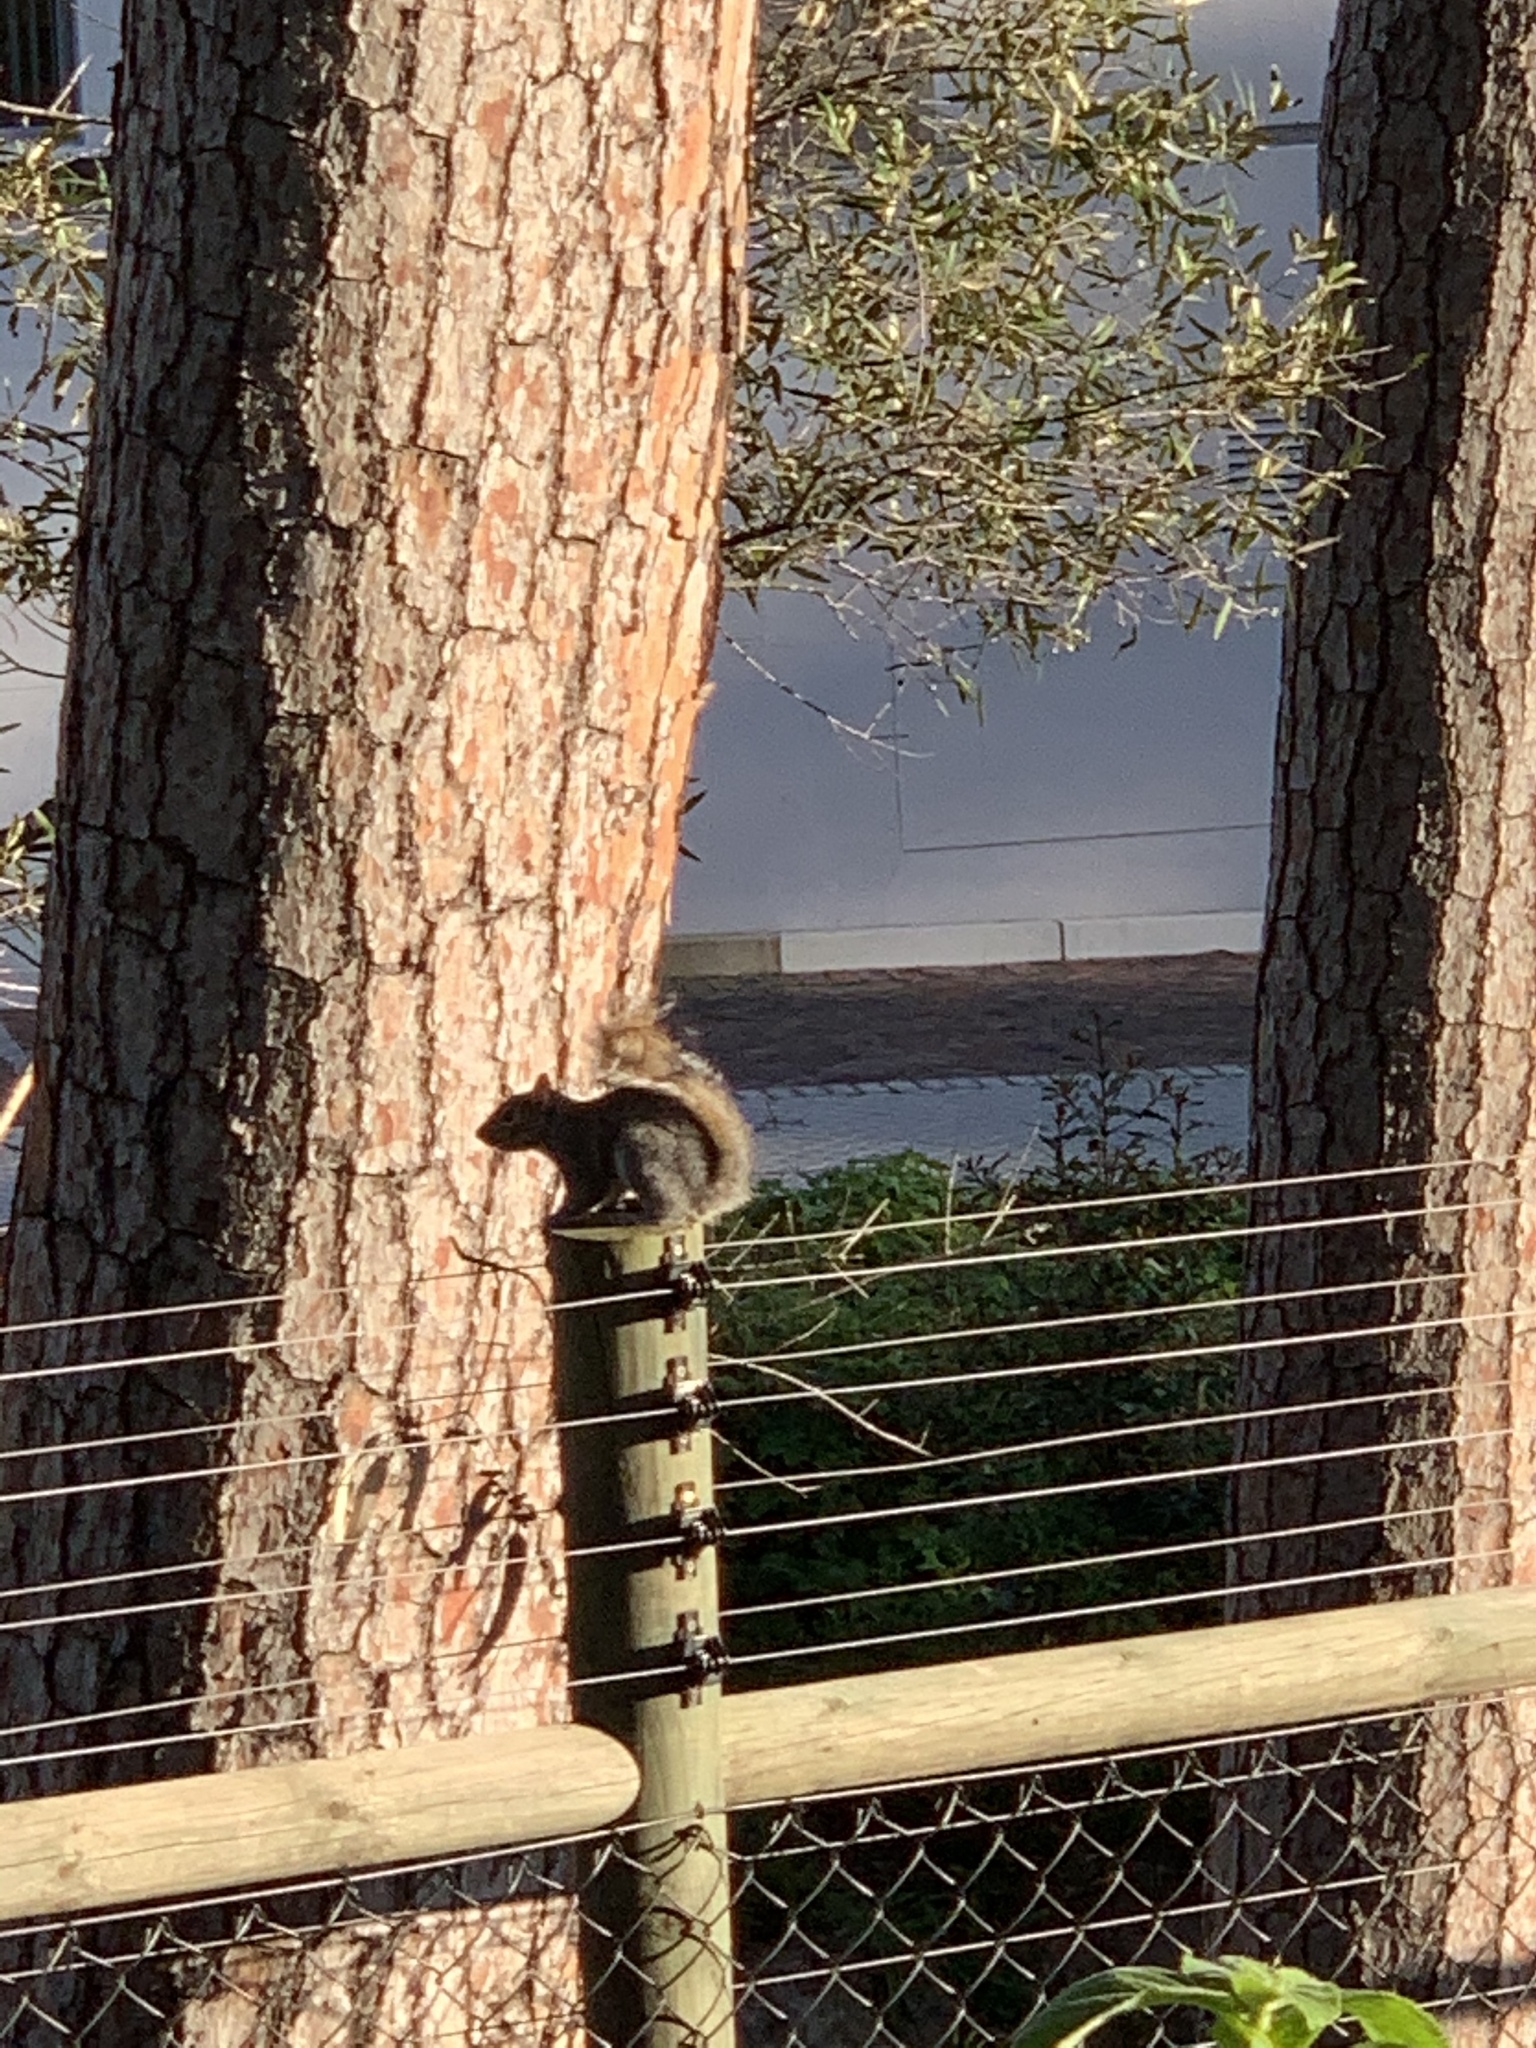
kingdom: Animalia
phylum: Chordata
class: Mammalia
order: Rodentia
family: Sciuridae
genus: Sciurus
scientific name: Sciurus carolinensis
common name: Eastern gray squirrel
